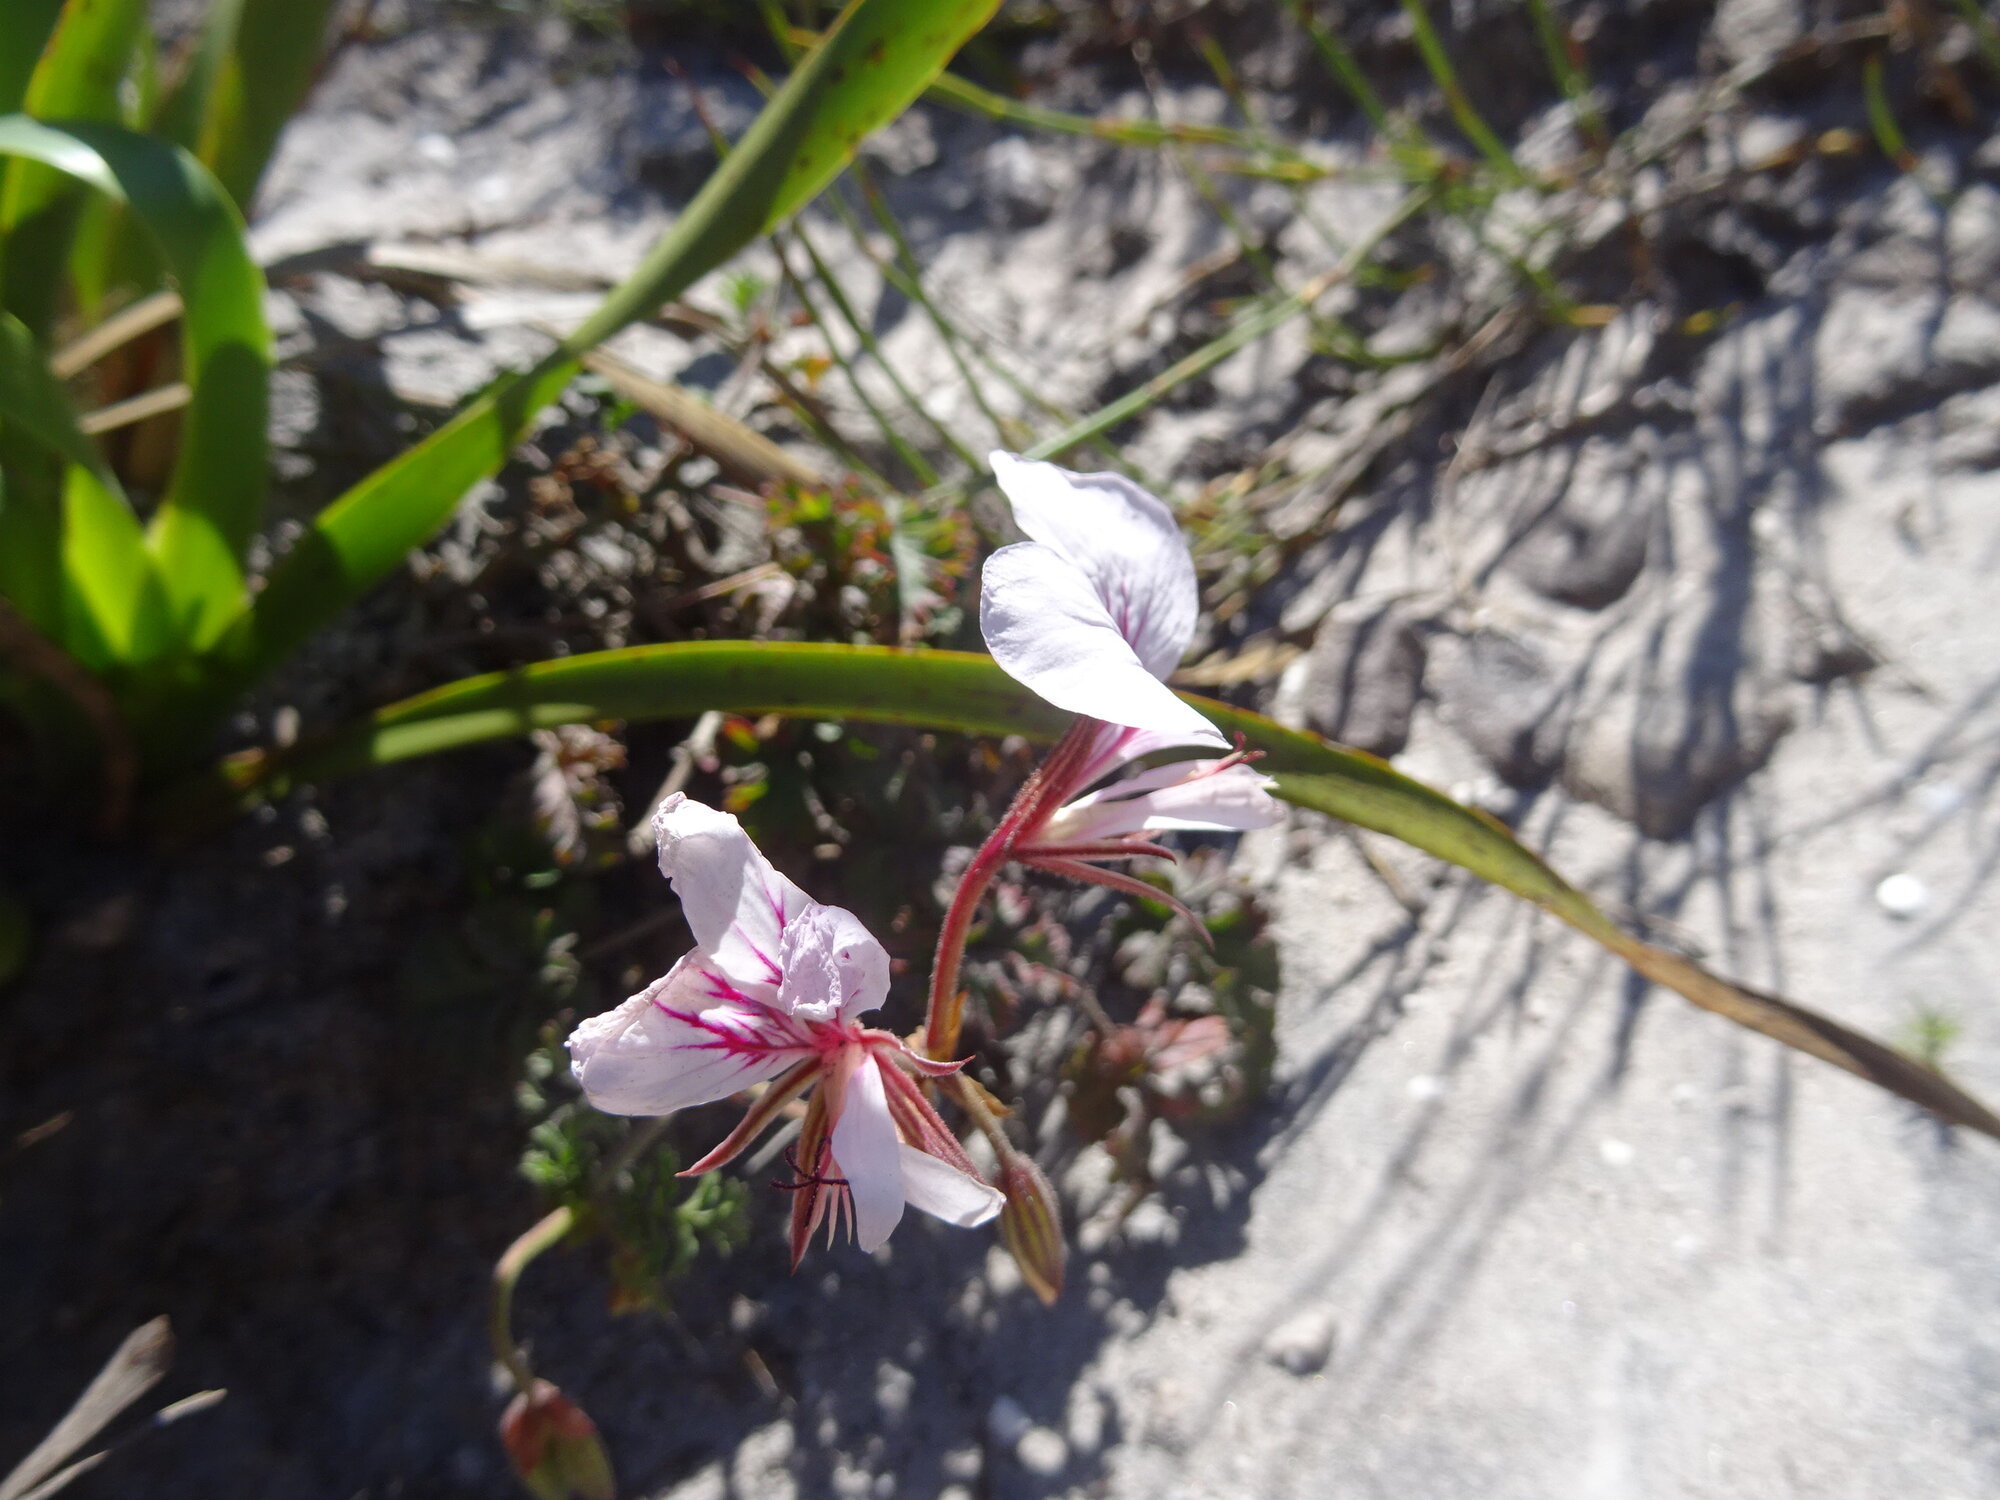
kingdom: Plantae
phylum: Tracheophyta
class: Magnoliopsida
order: Geraniales
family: Geraniaceae
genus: Pelargonium
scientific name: Pelargonium longicaule
